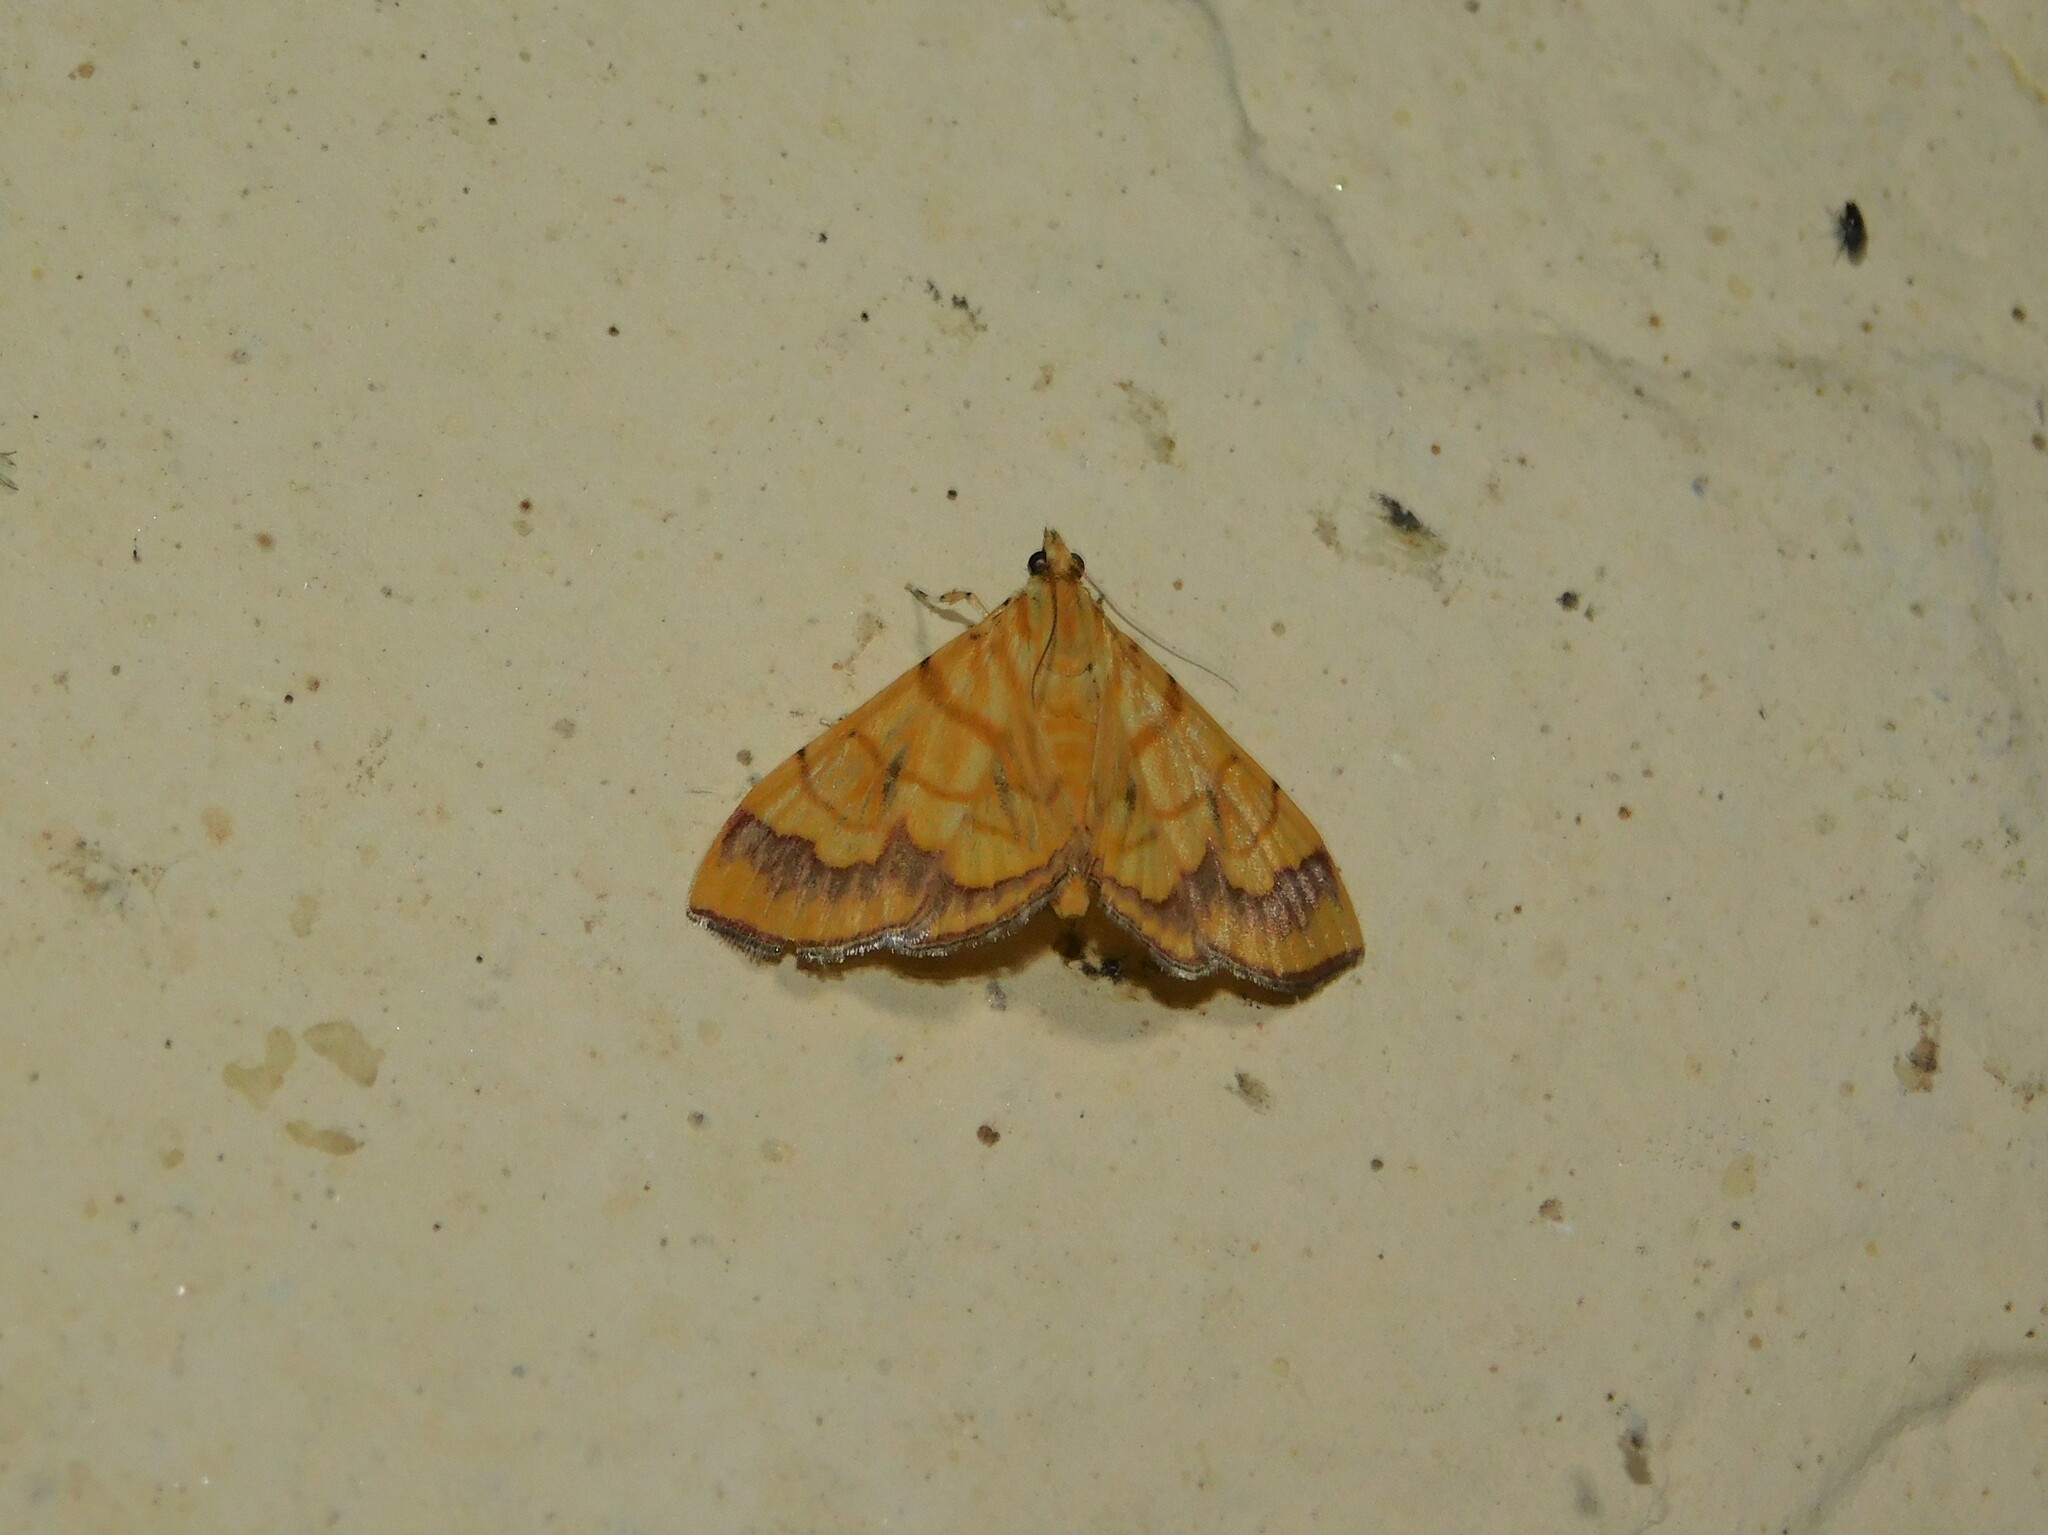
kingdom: Animalia
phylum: Arthropoda
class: Insecta
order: Lepidoptera
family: Crambidae
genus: Cryptosara
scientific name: Cryptosara caritalis
